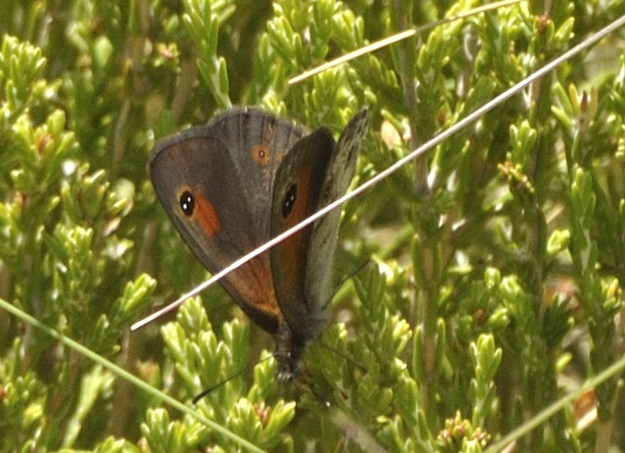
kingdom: Animalia
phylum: Arthropoda
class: Insecta
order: Lepidoptera
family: Nymphalidae
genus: Pseudonympha
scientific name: Pseudonympha magoides
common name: False silver-bottom brown
